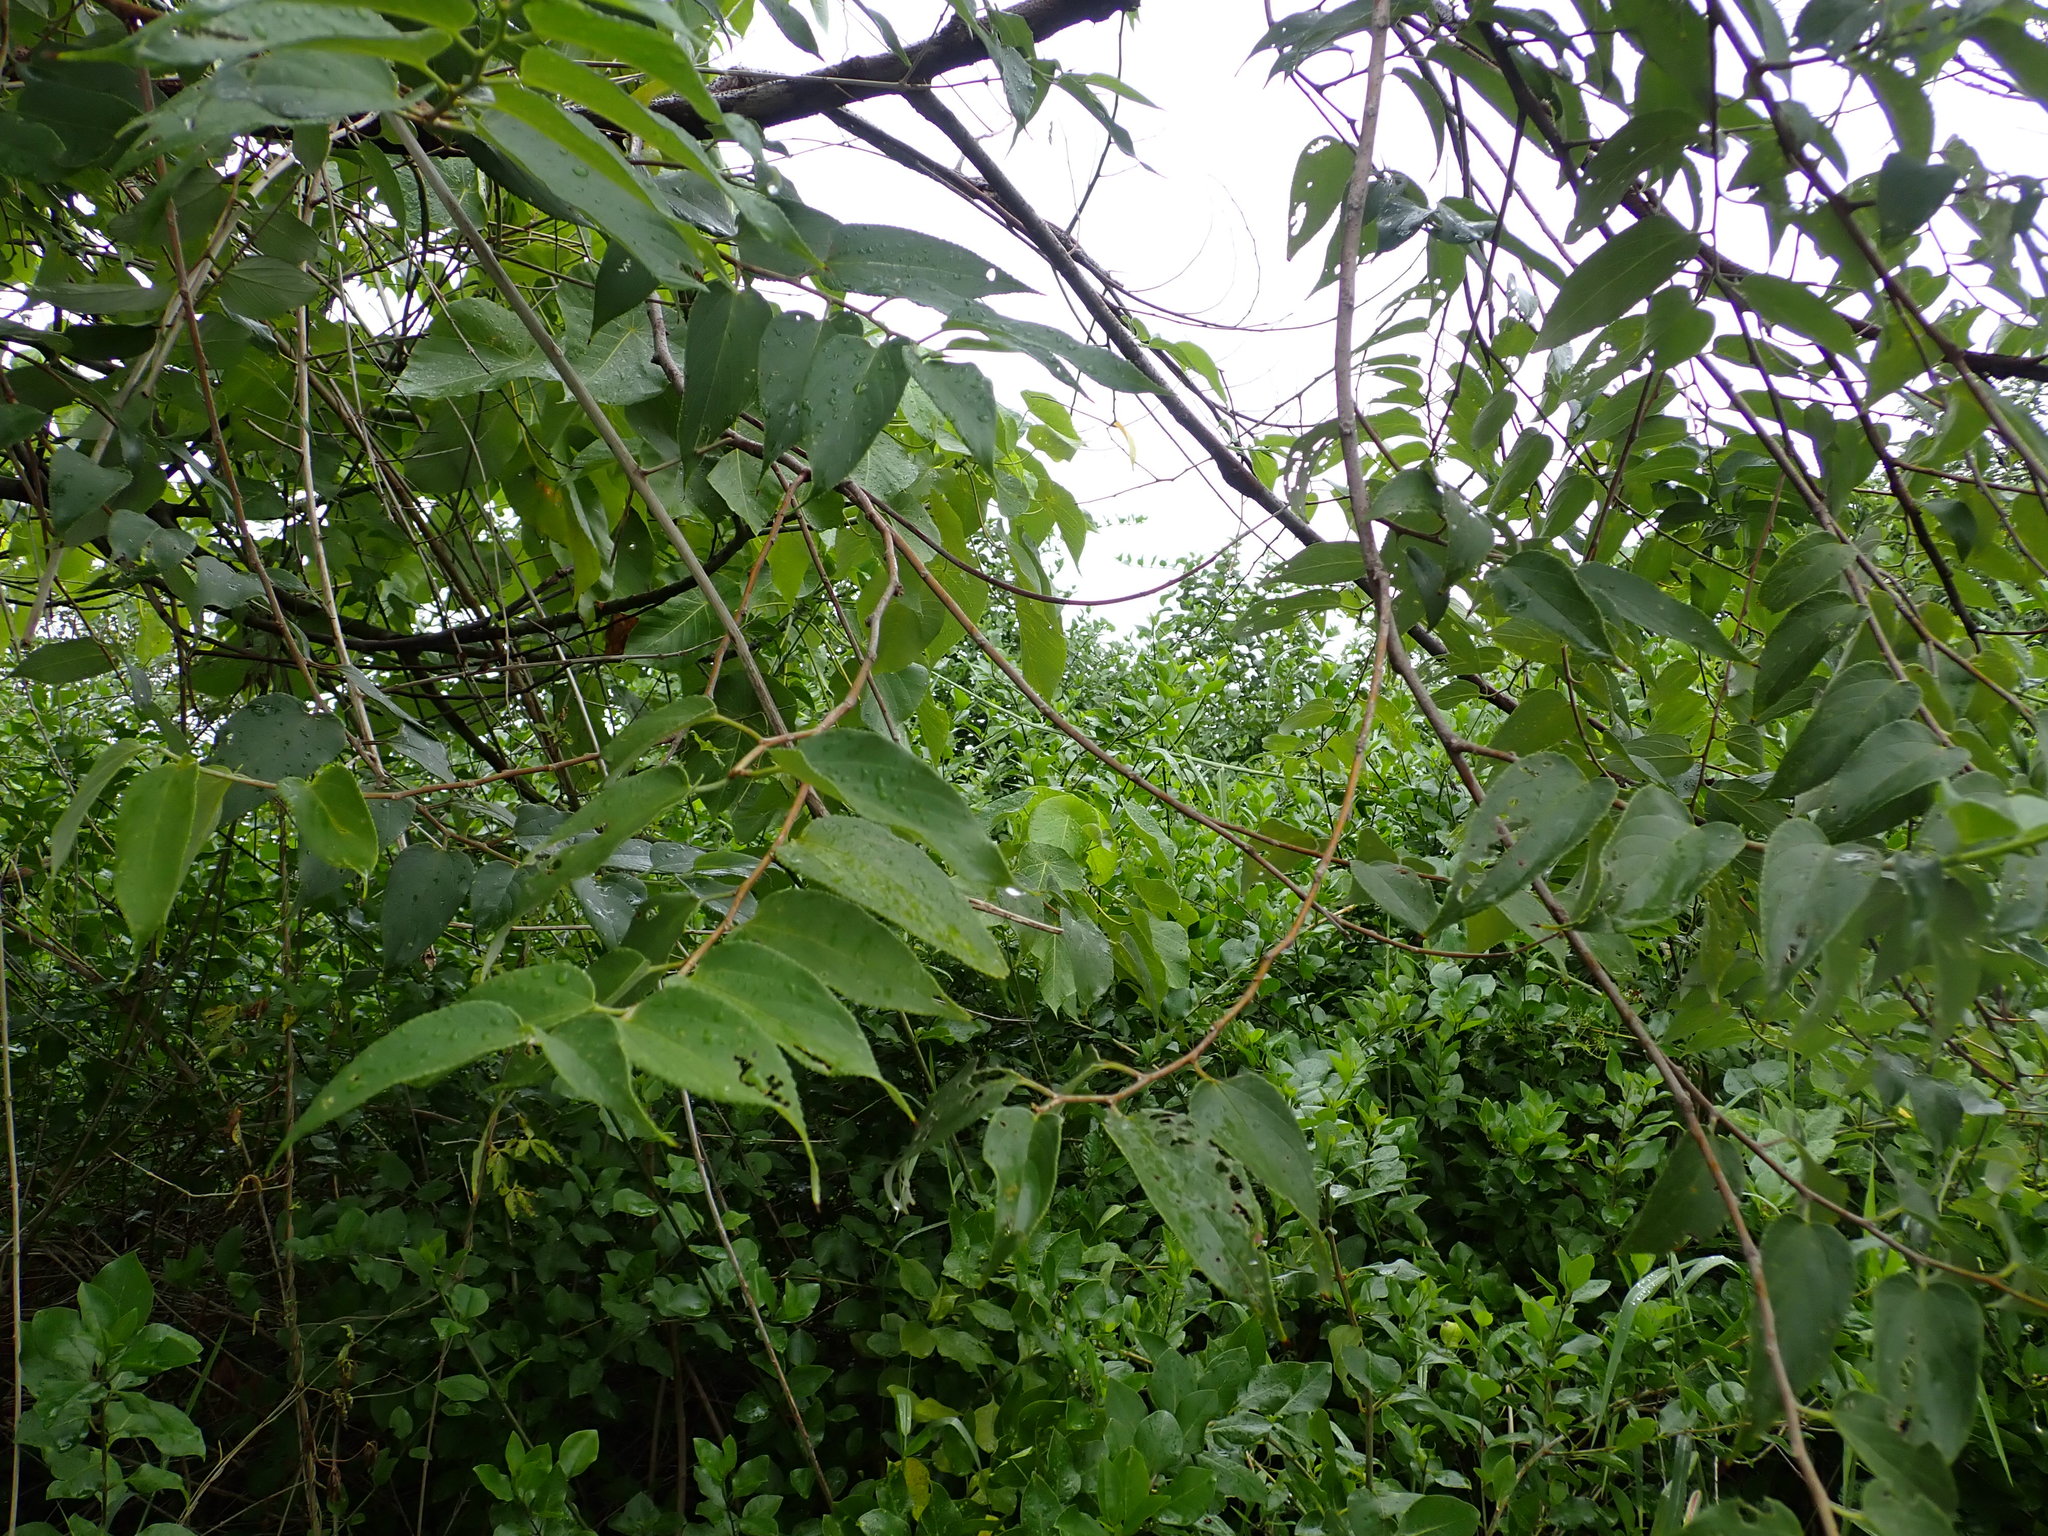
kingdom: Plantae
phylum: Tracheophyta
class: Magnoliopsida
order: Rosales
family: Cannabaceae
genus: Trema
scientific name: Trema orientale
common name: Indian charcoal tree
